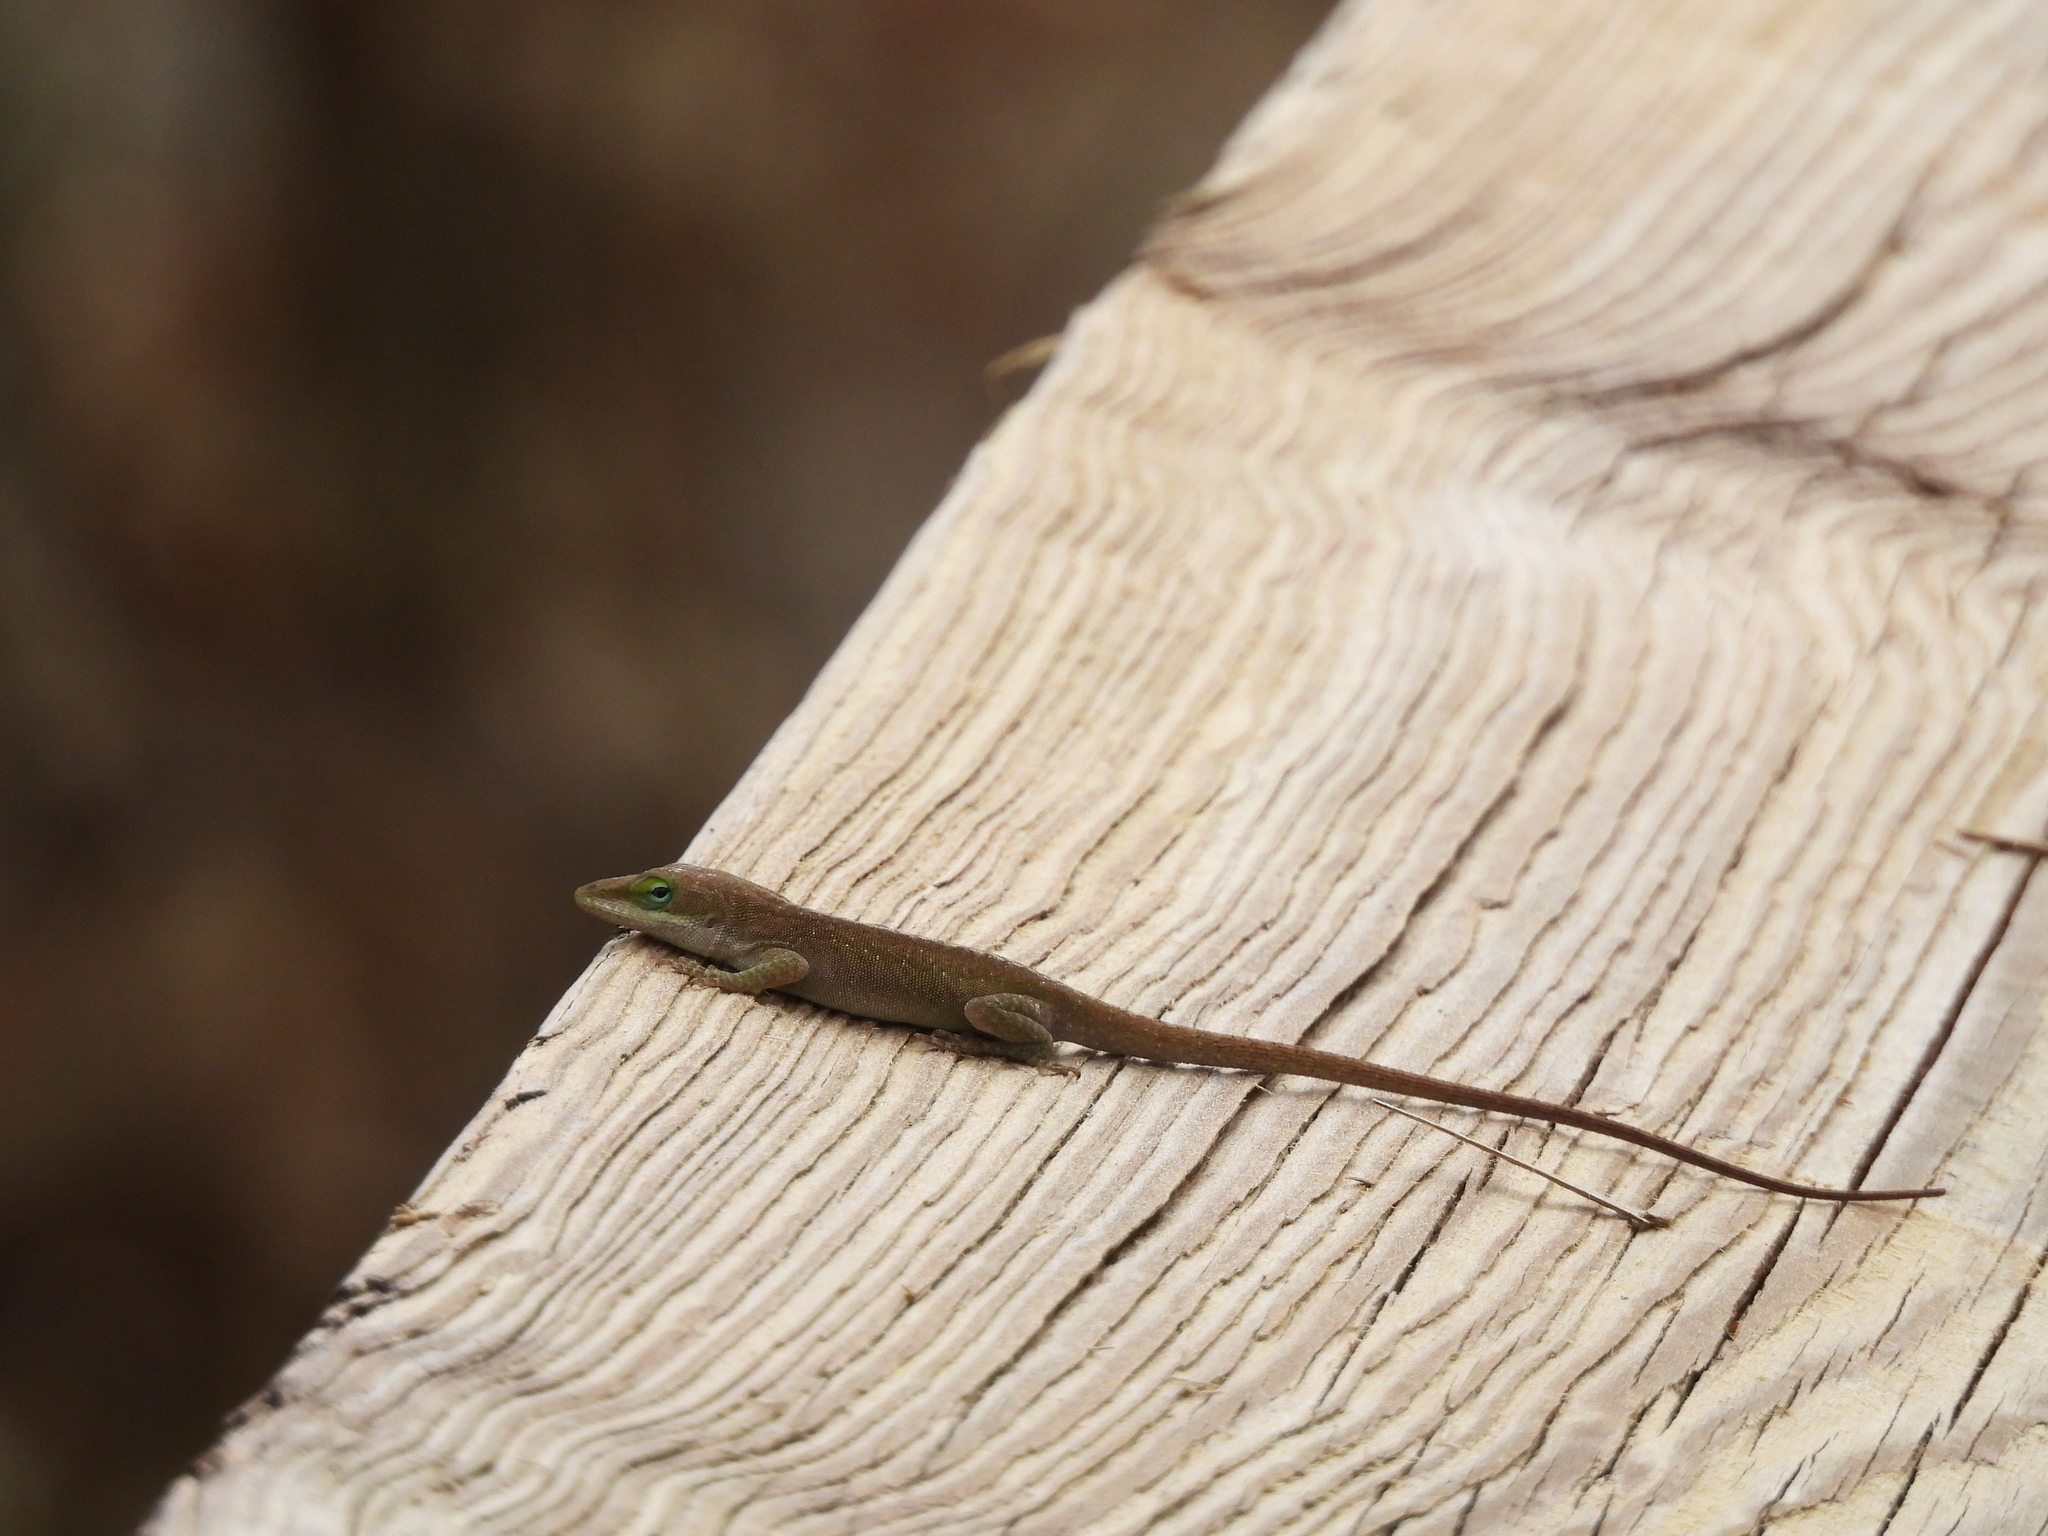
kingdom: Animalia
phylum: Chordata
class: Squamata
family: Dactyloidae
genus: Anolis
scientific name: Anolis carolinensis
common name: Green anole
